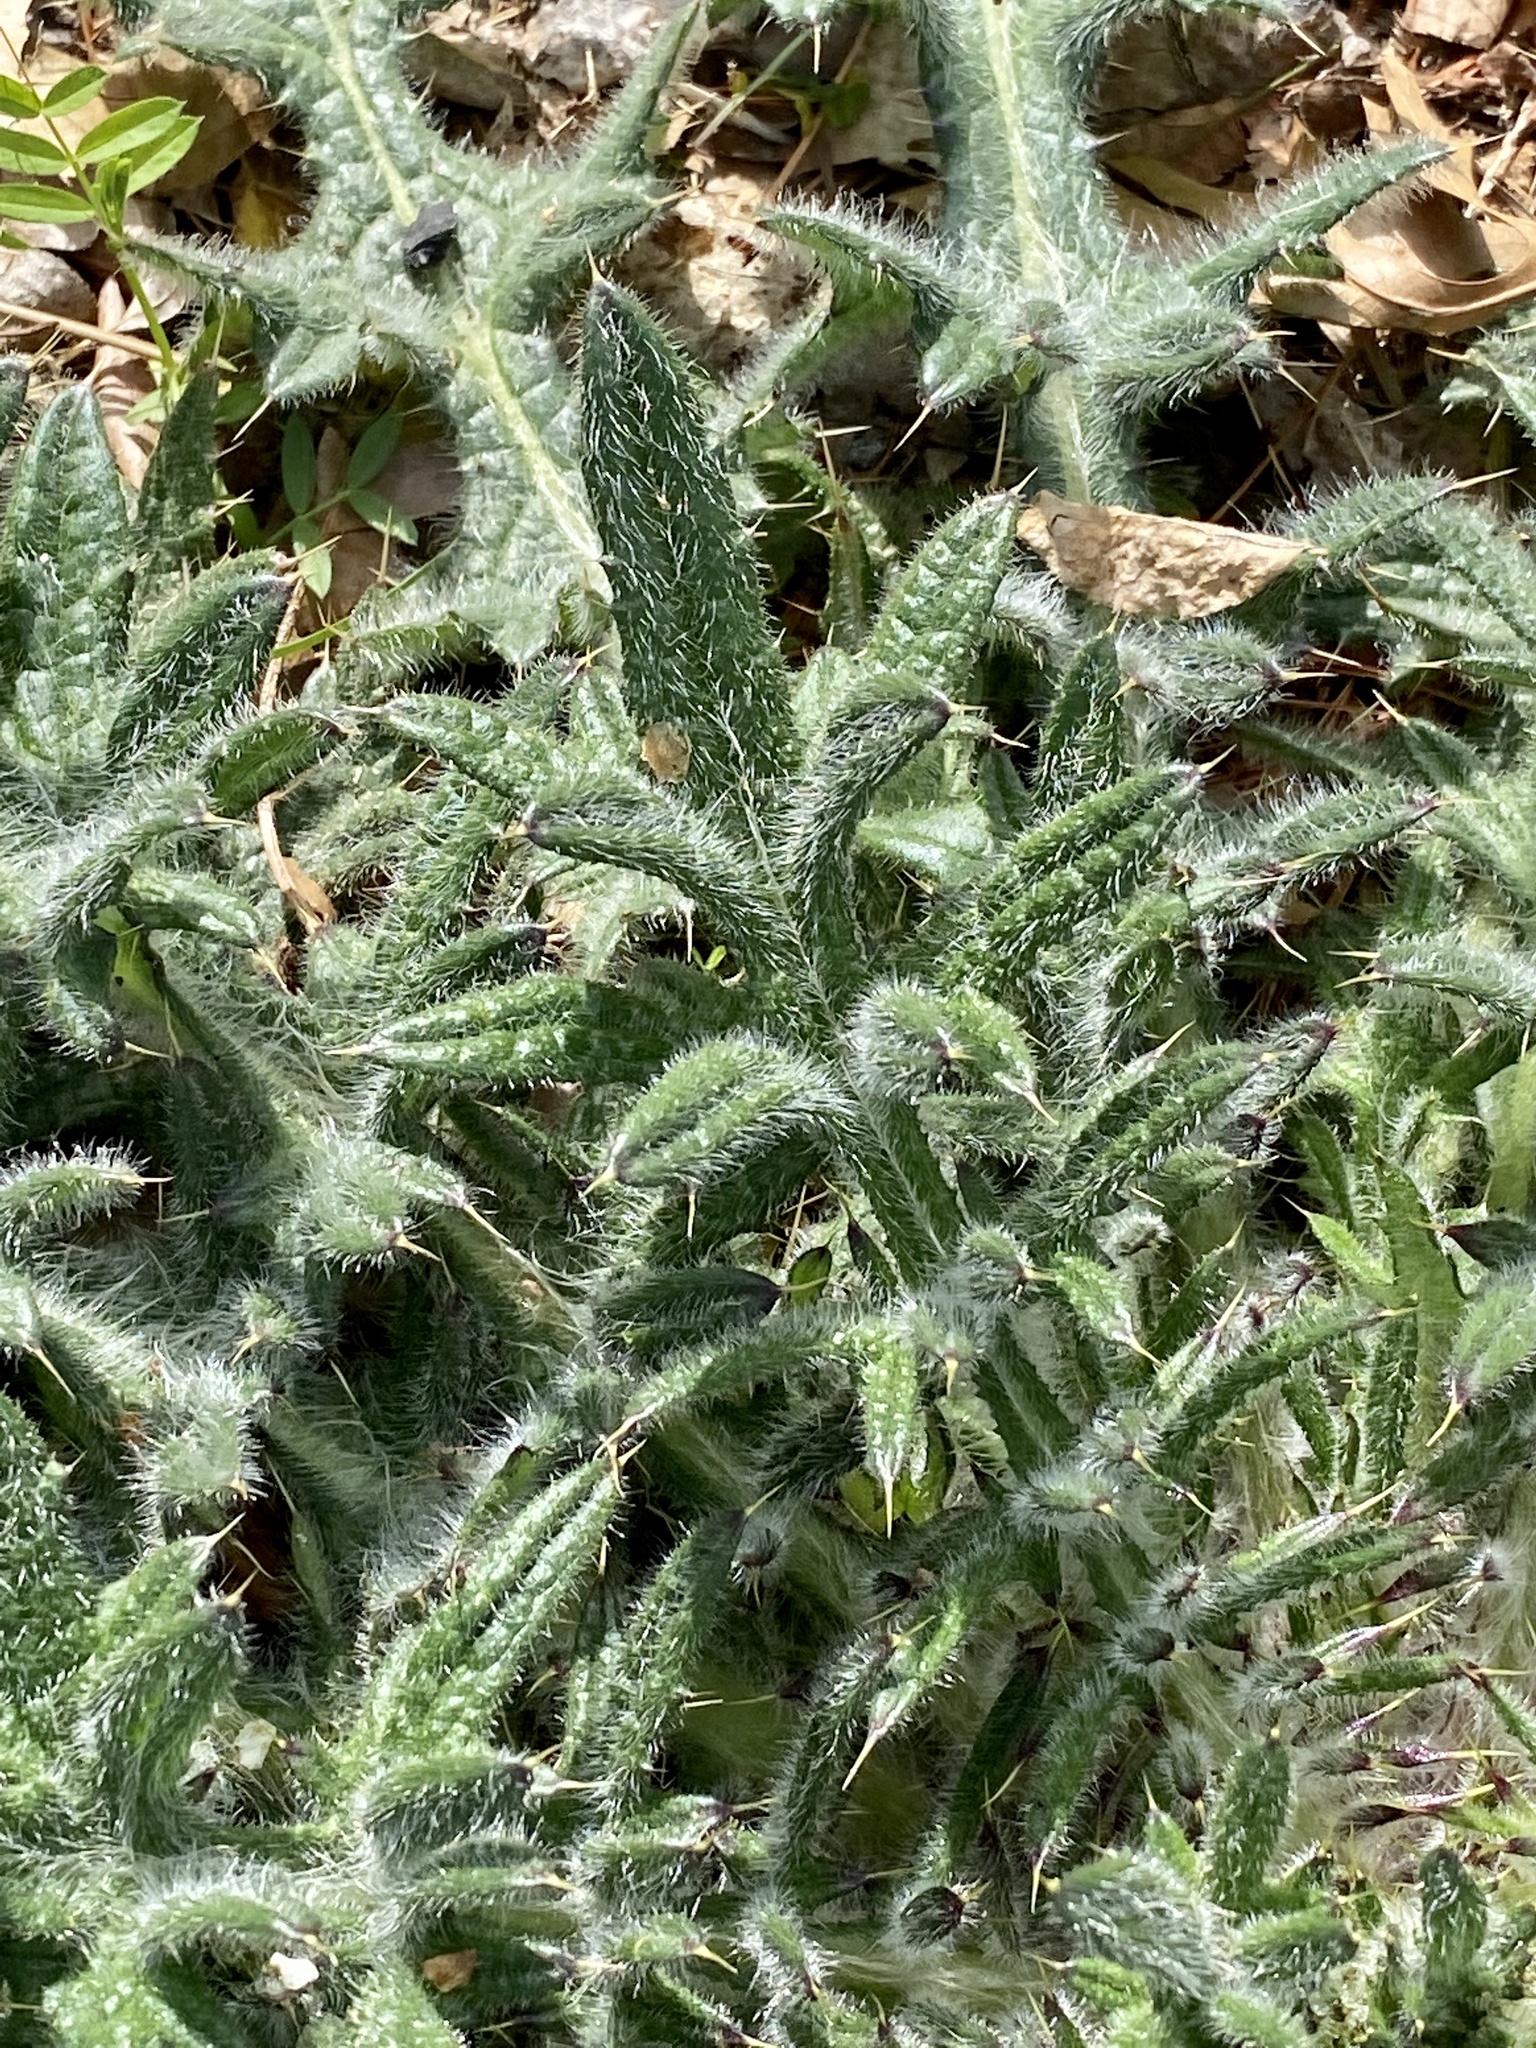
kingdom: Plantae
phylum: Tracheophyta
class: Magnoliopsida
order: Asterales
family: Asteraceae
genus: Cirsium
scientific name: Cirsium vulgare
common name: Bull thistle
